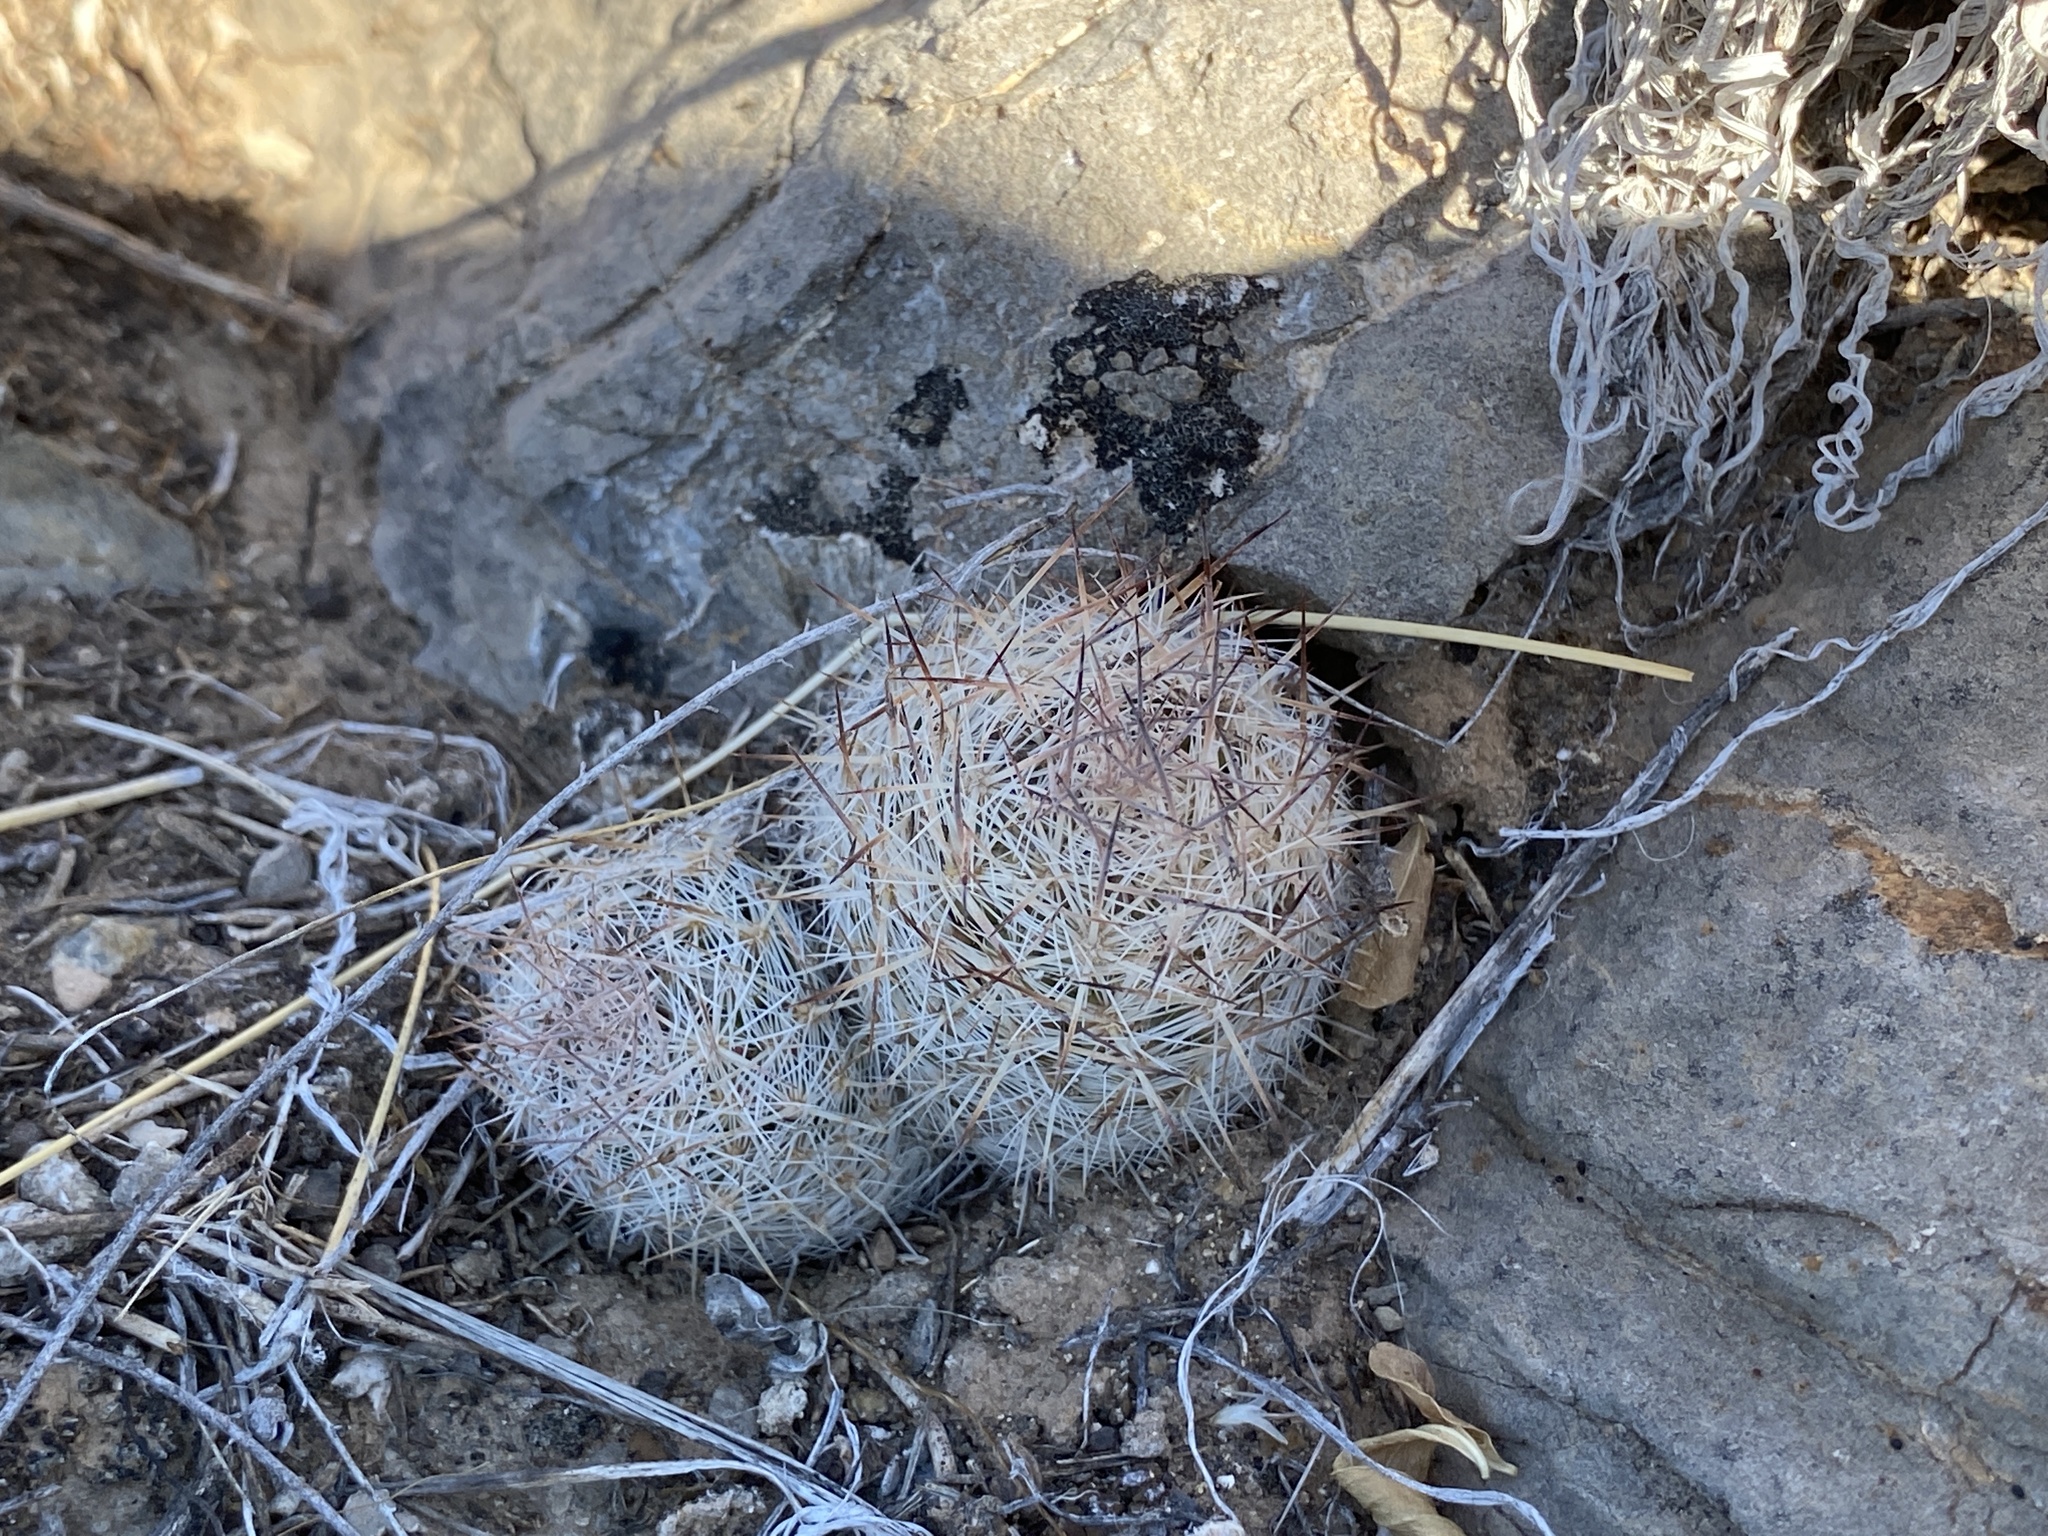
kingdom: Plantae
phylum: Tracheophyta
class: Magnoliopsida
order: Caryophyllales
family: Cactaceae
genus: Pelecyphora
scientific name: Pelecyphora tuberculosa
